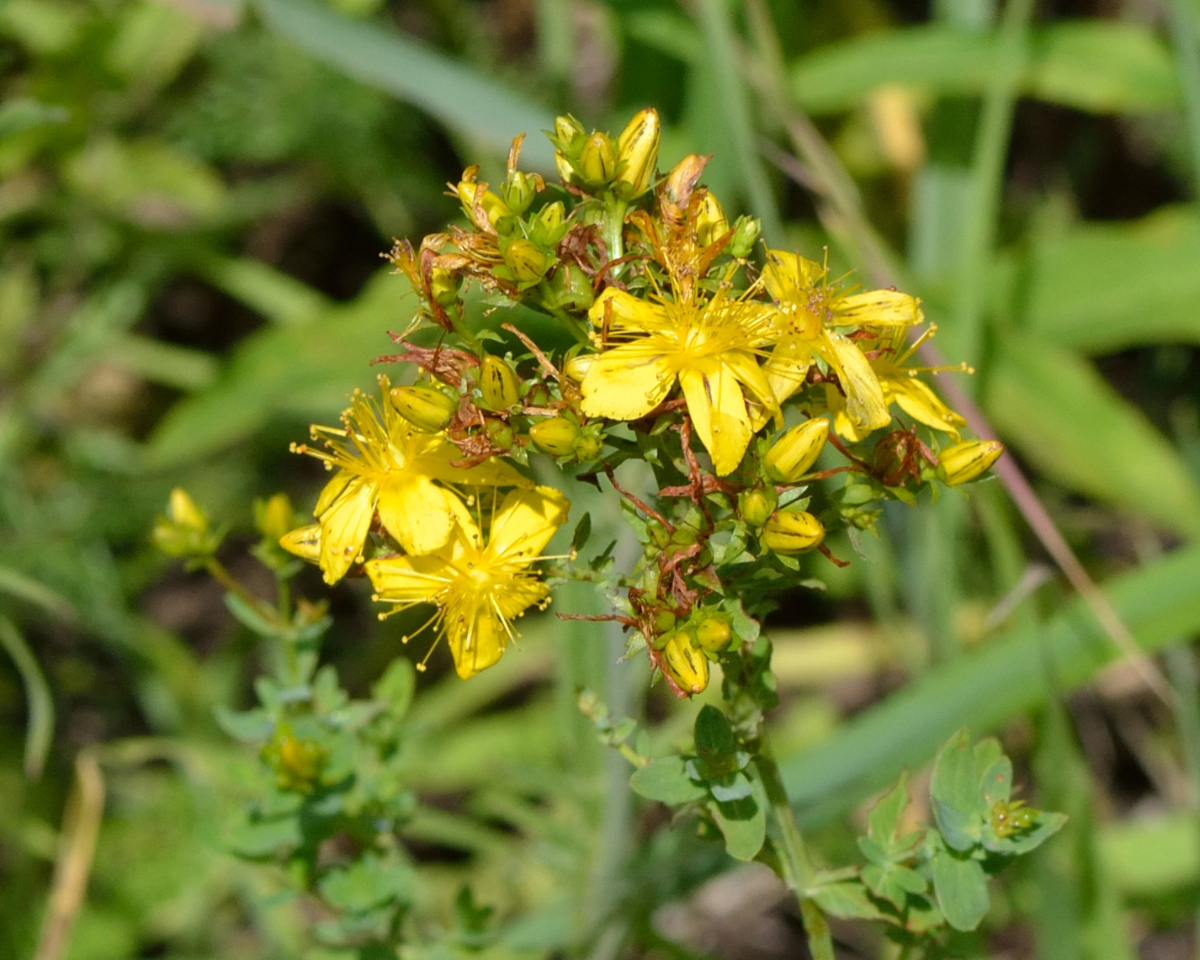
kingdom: Plantae
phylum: Tracheophyta
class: Magnoliopsida
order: Malpighiales
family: Hypericaceae
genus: Hypericum
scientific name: Hypericum perforatum
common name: Common st. johnswort
